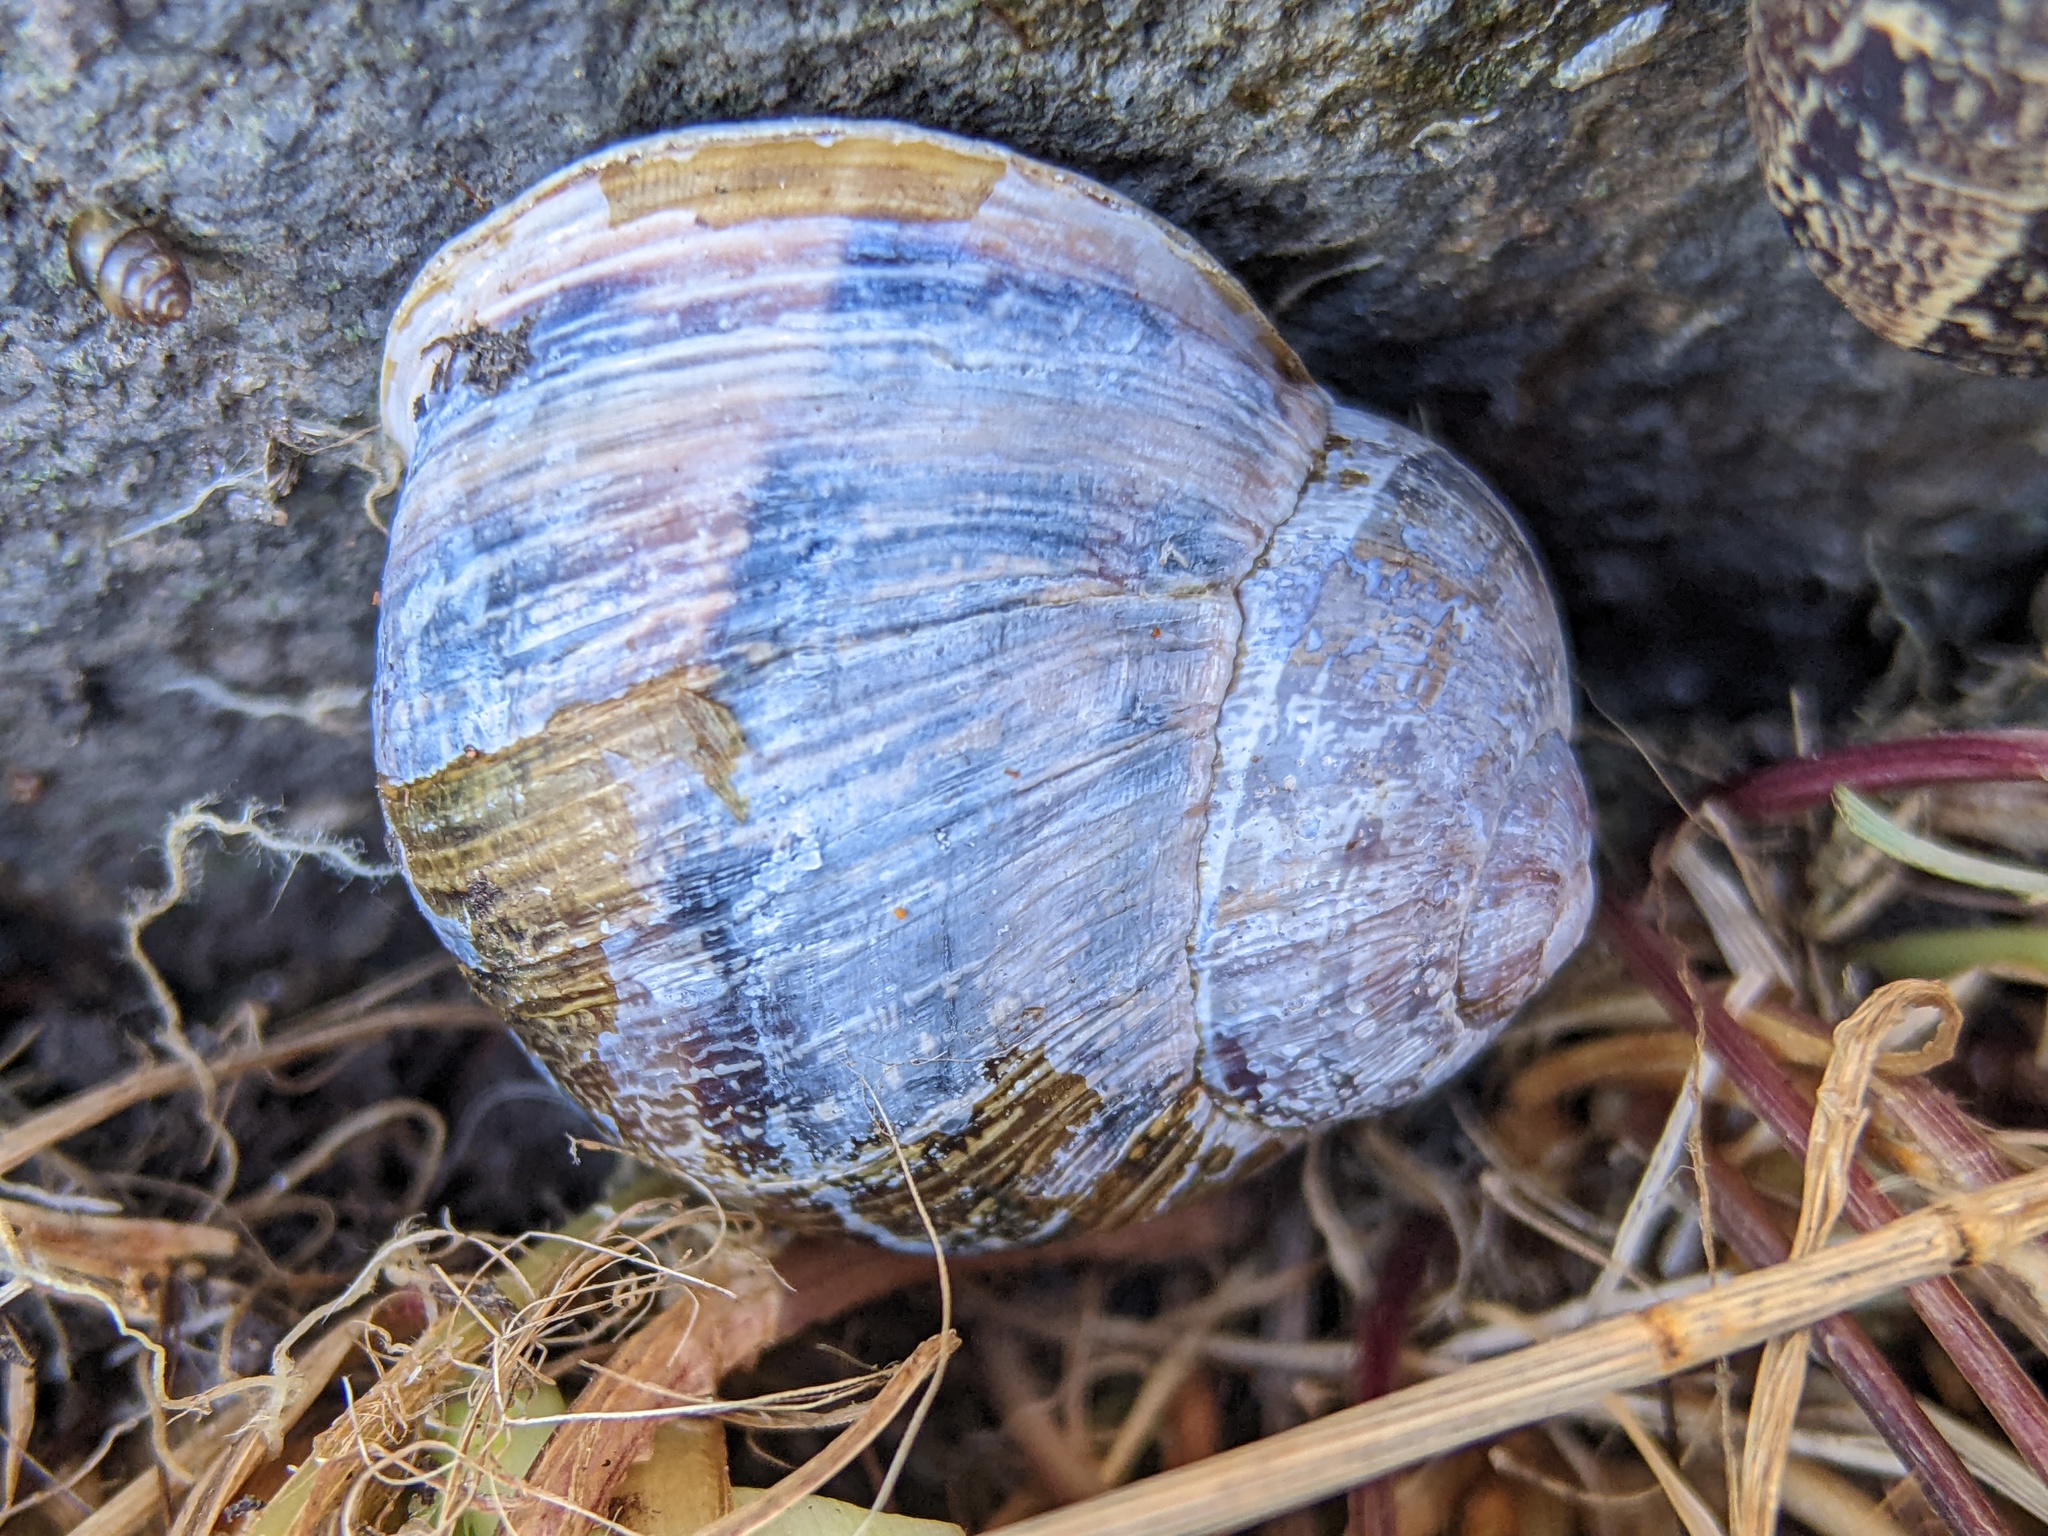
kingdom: Animalia
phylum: Mollusca
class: Gastropoda
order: Stylommatophora
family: Helicidae
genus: Cornu
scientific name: Cornu aspersum
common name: Brown garden snail
